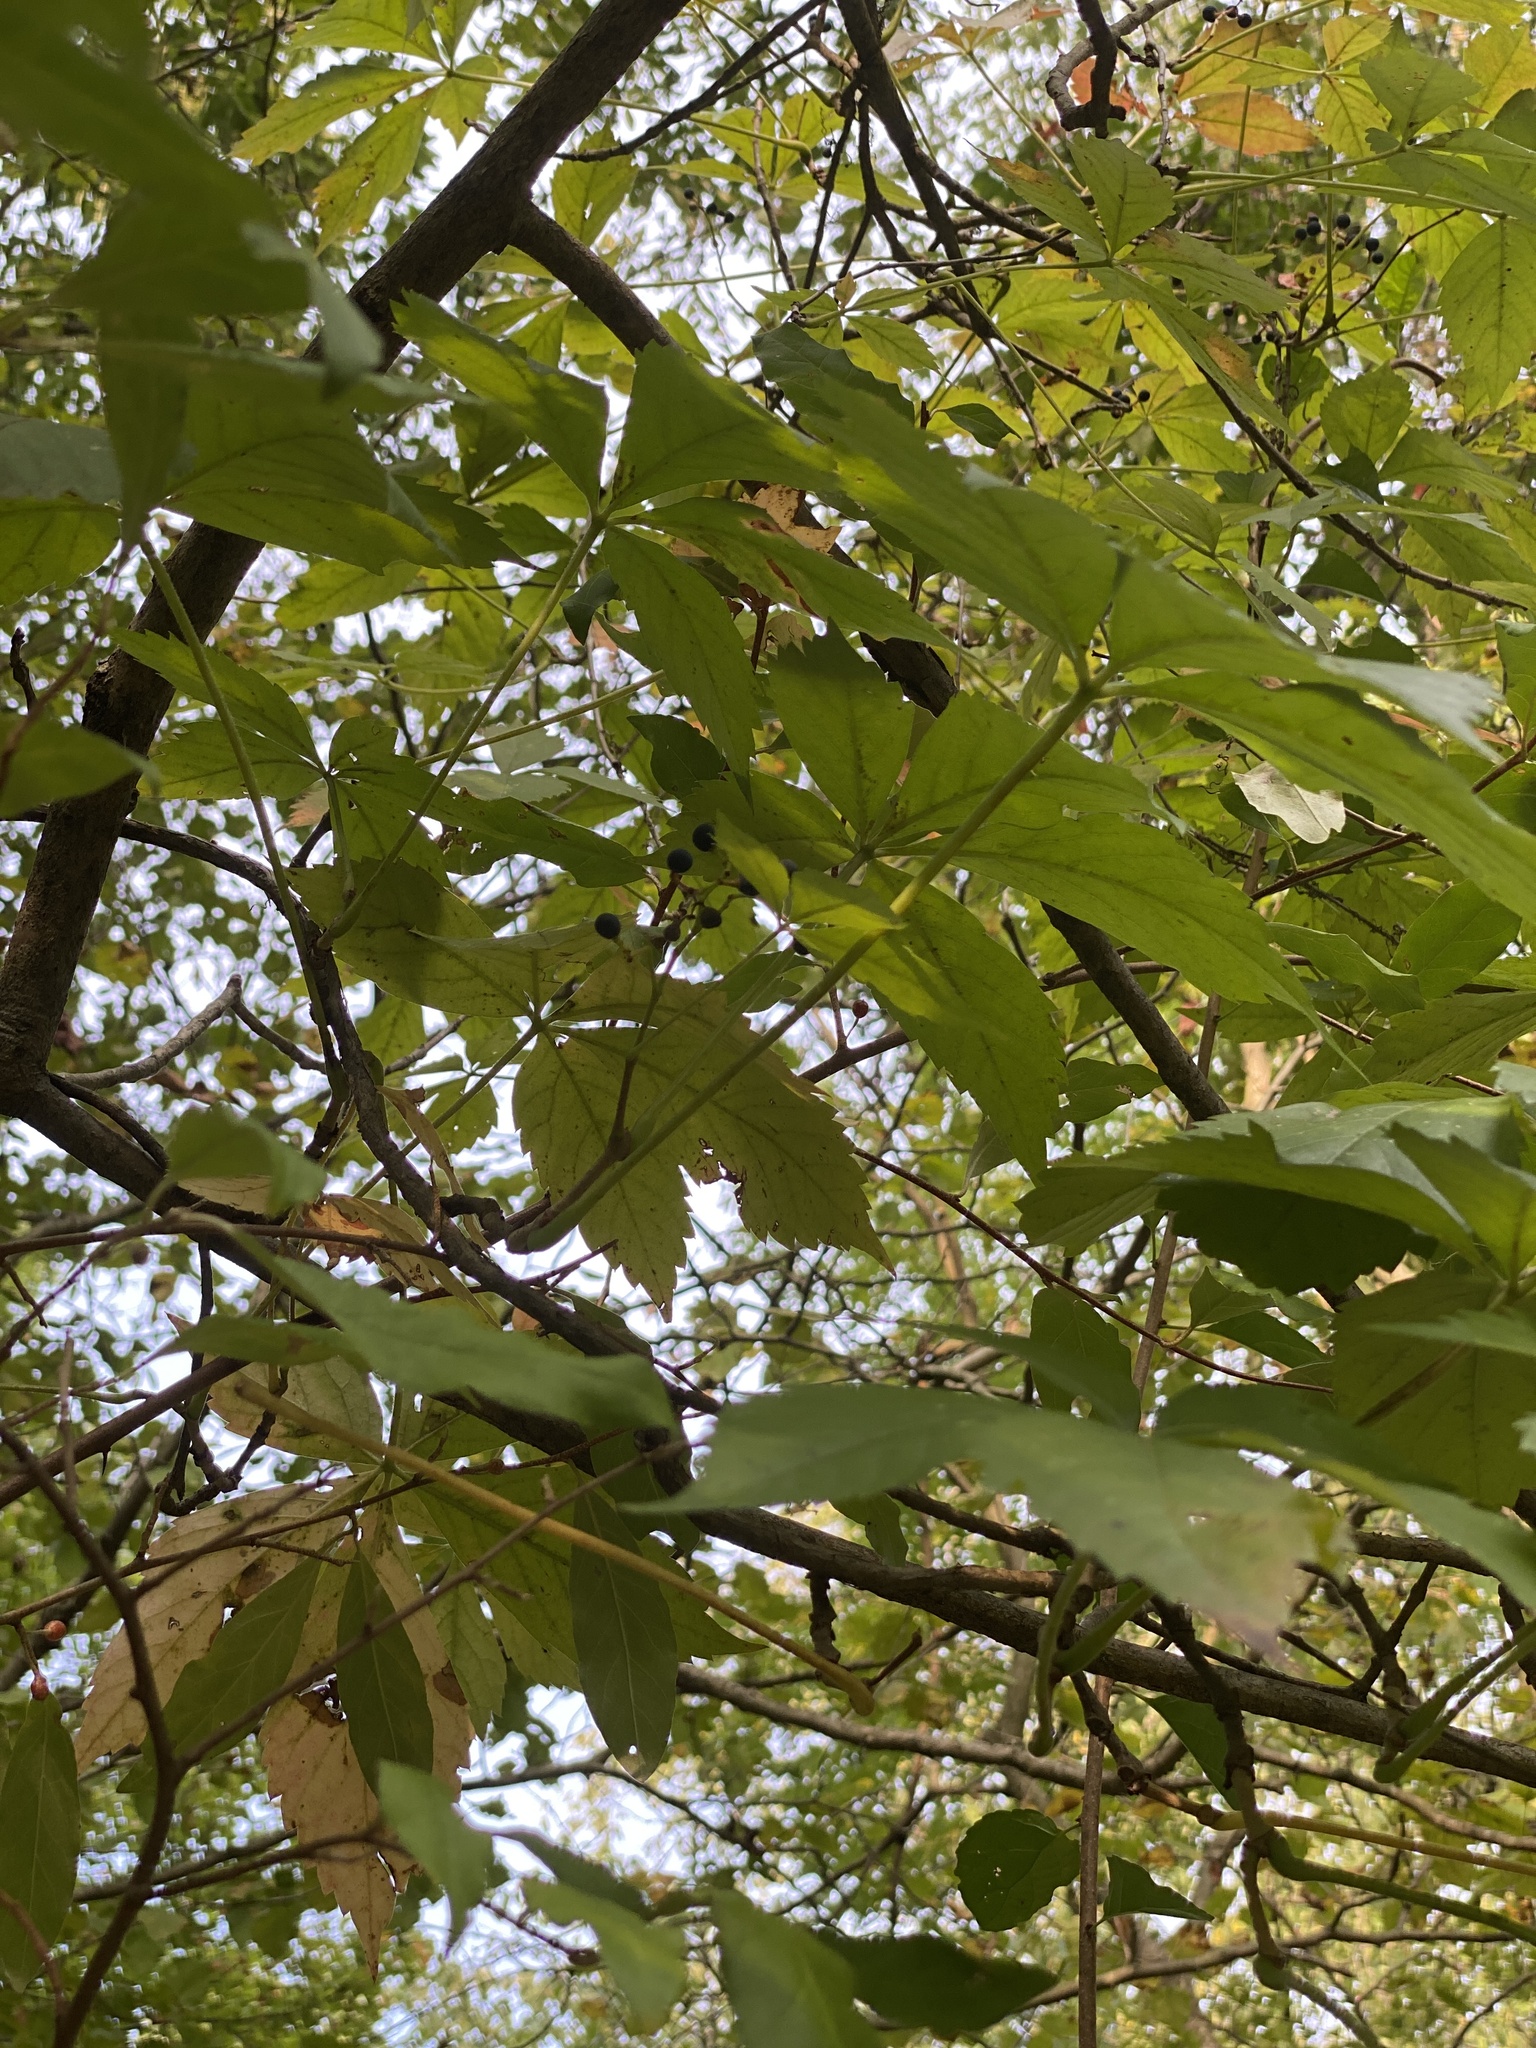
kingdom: Plantae
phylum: Tracheophyta
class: Magnoliopsida
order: Vitales
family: Vitaceae
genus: Parthenocissus
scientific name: Parthenocissus quinquefolia
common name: Virginia-creeper
